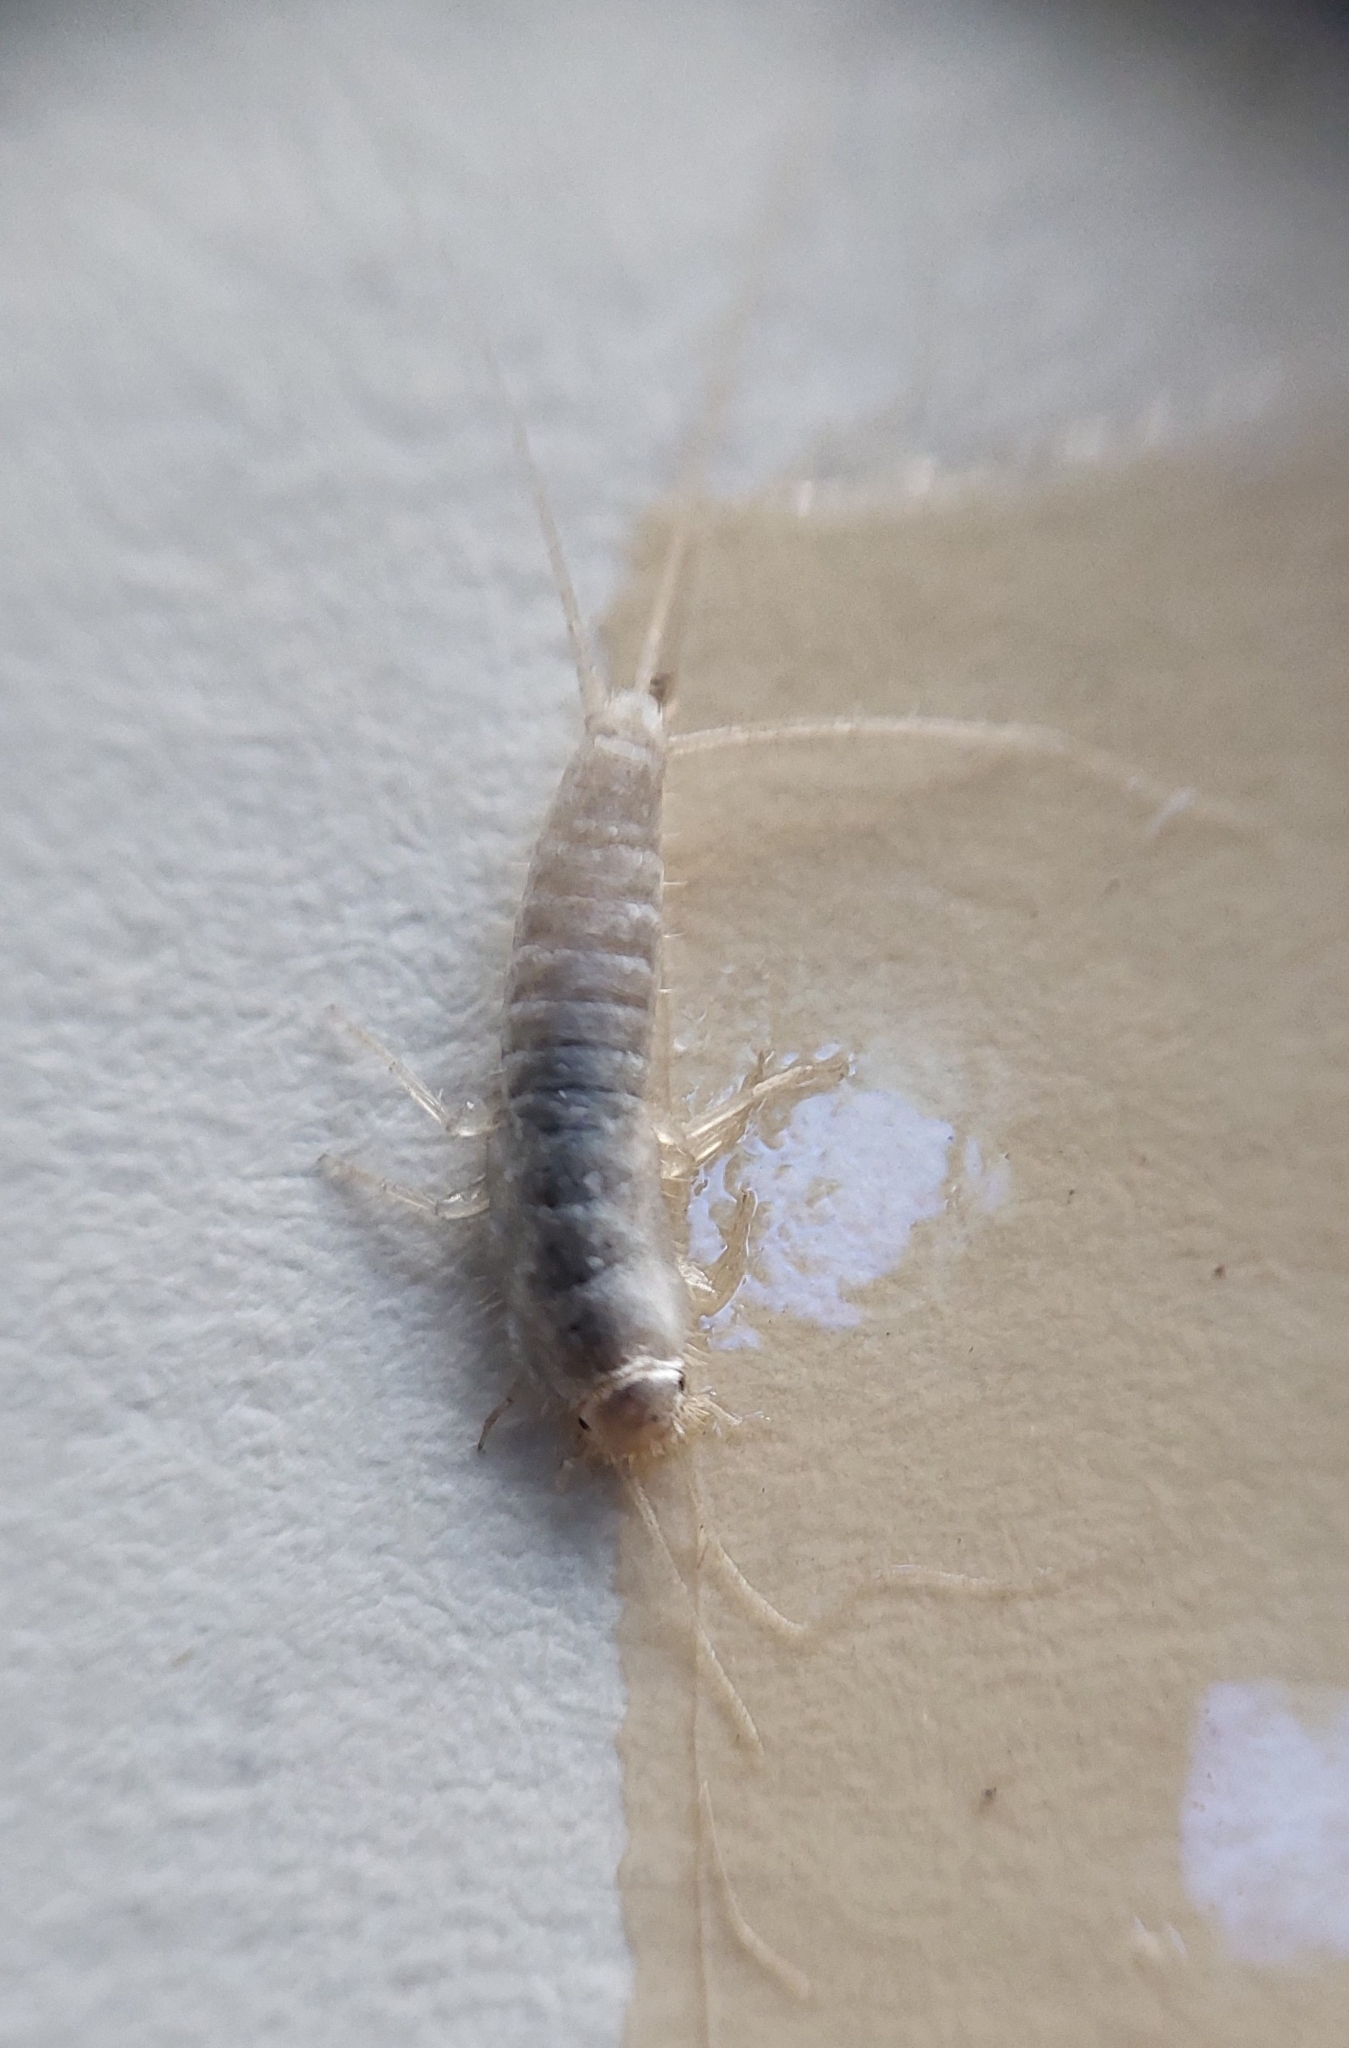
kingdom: Animalia
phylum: Arthropoda
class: Insecta
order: Zygentoma
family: Lepismatidae
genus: Ctenolepisma
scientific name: Ctenolepisma calvum
